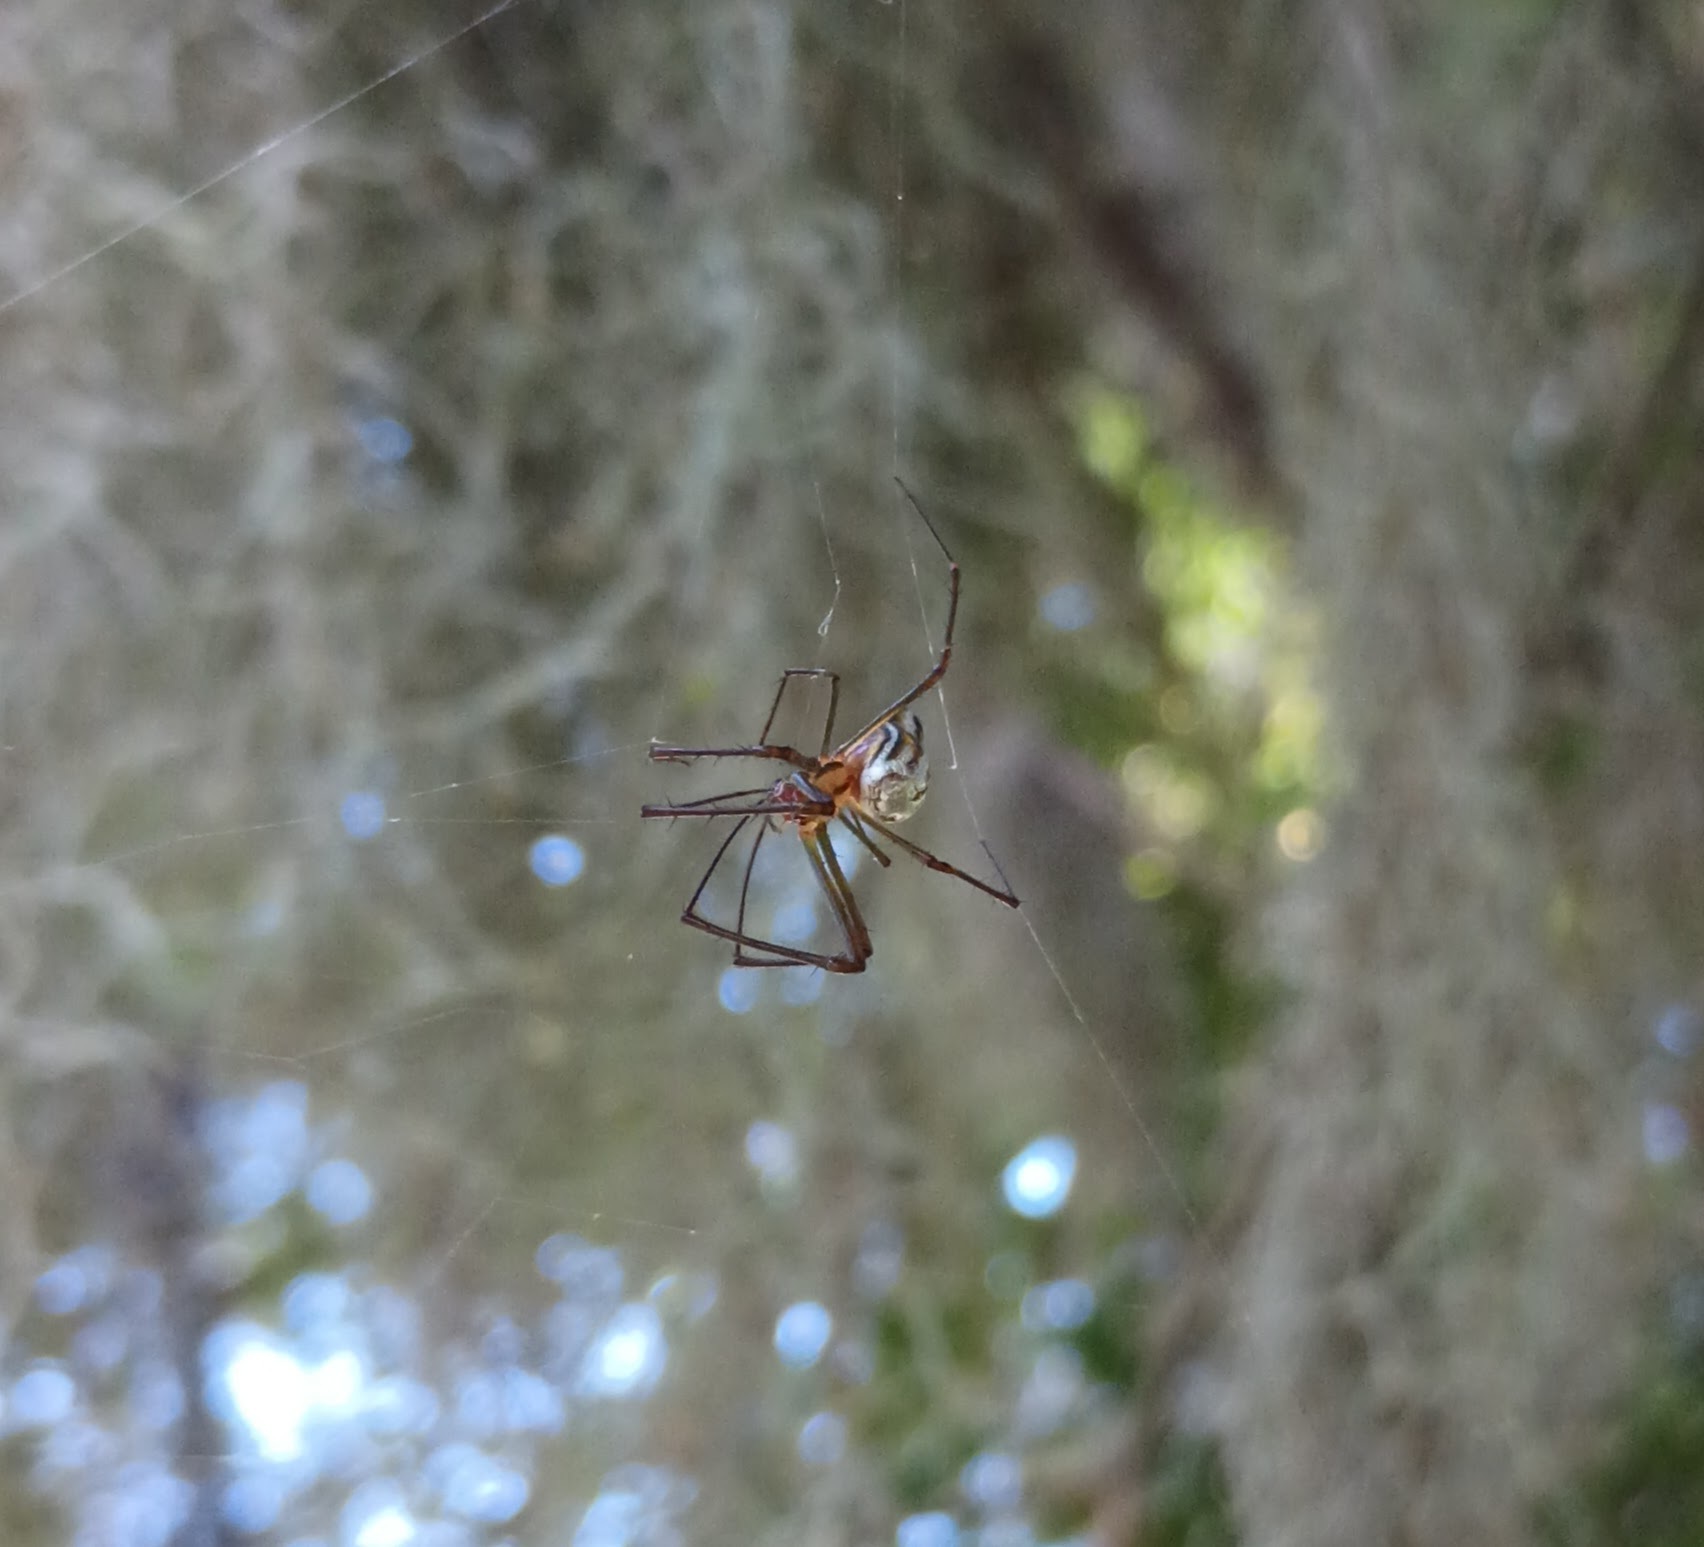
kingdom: Animalia
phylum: Arthropoda
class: Arachnida
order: Araneae
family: Tetragnathidae
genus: Leucauge
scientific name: Leucauge argyra
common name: Longjawed orb weavers
